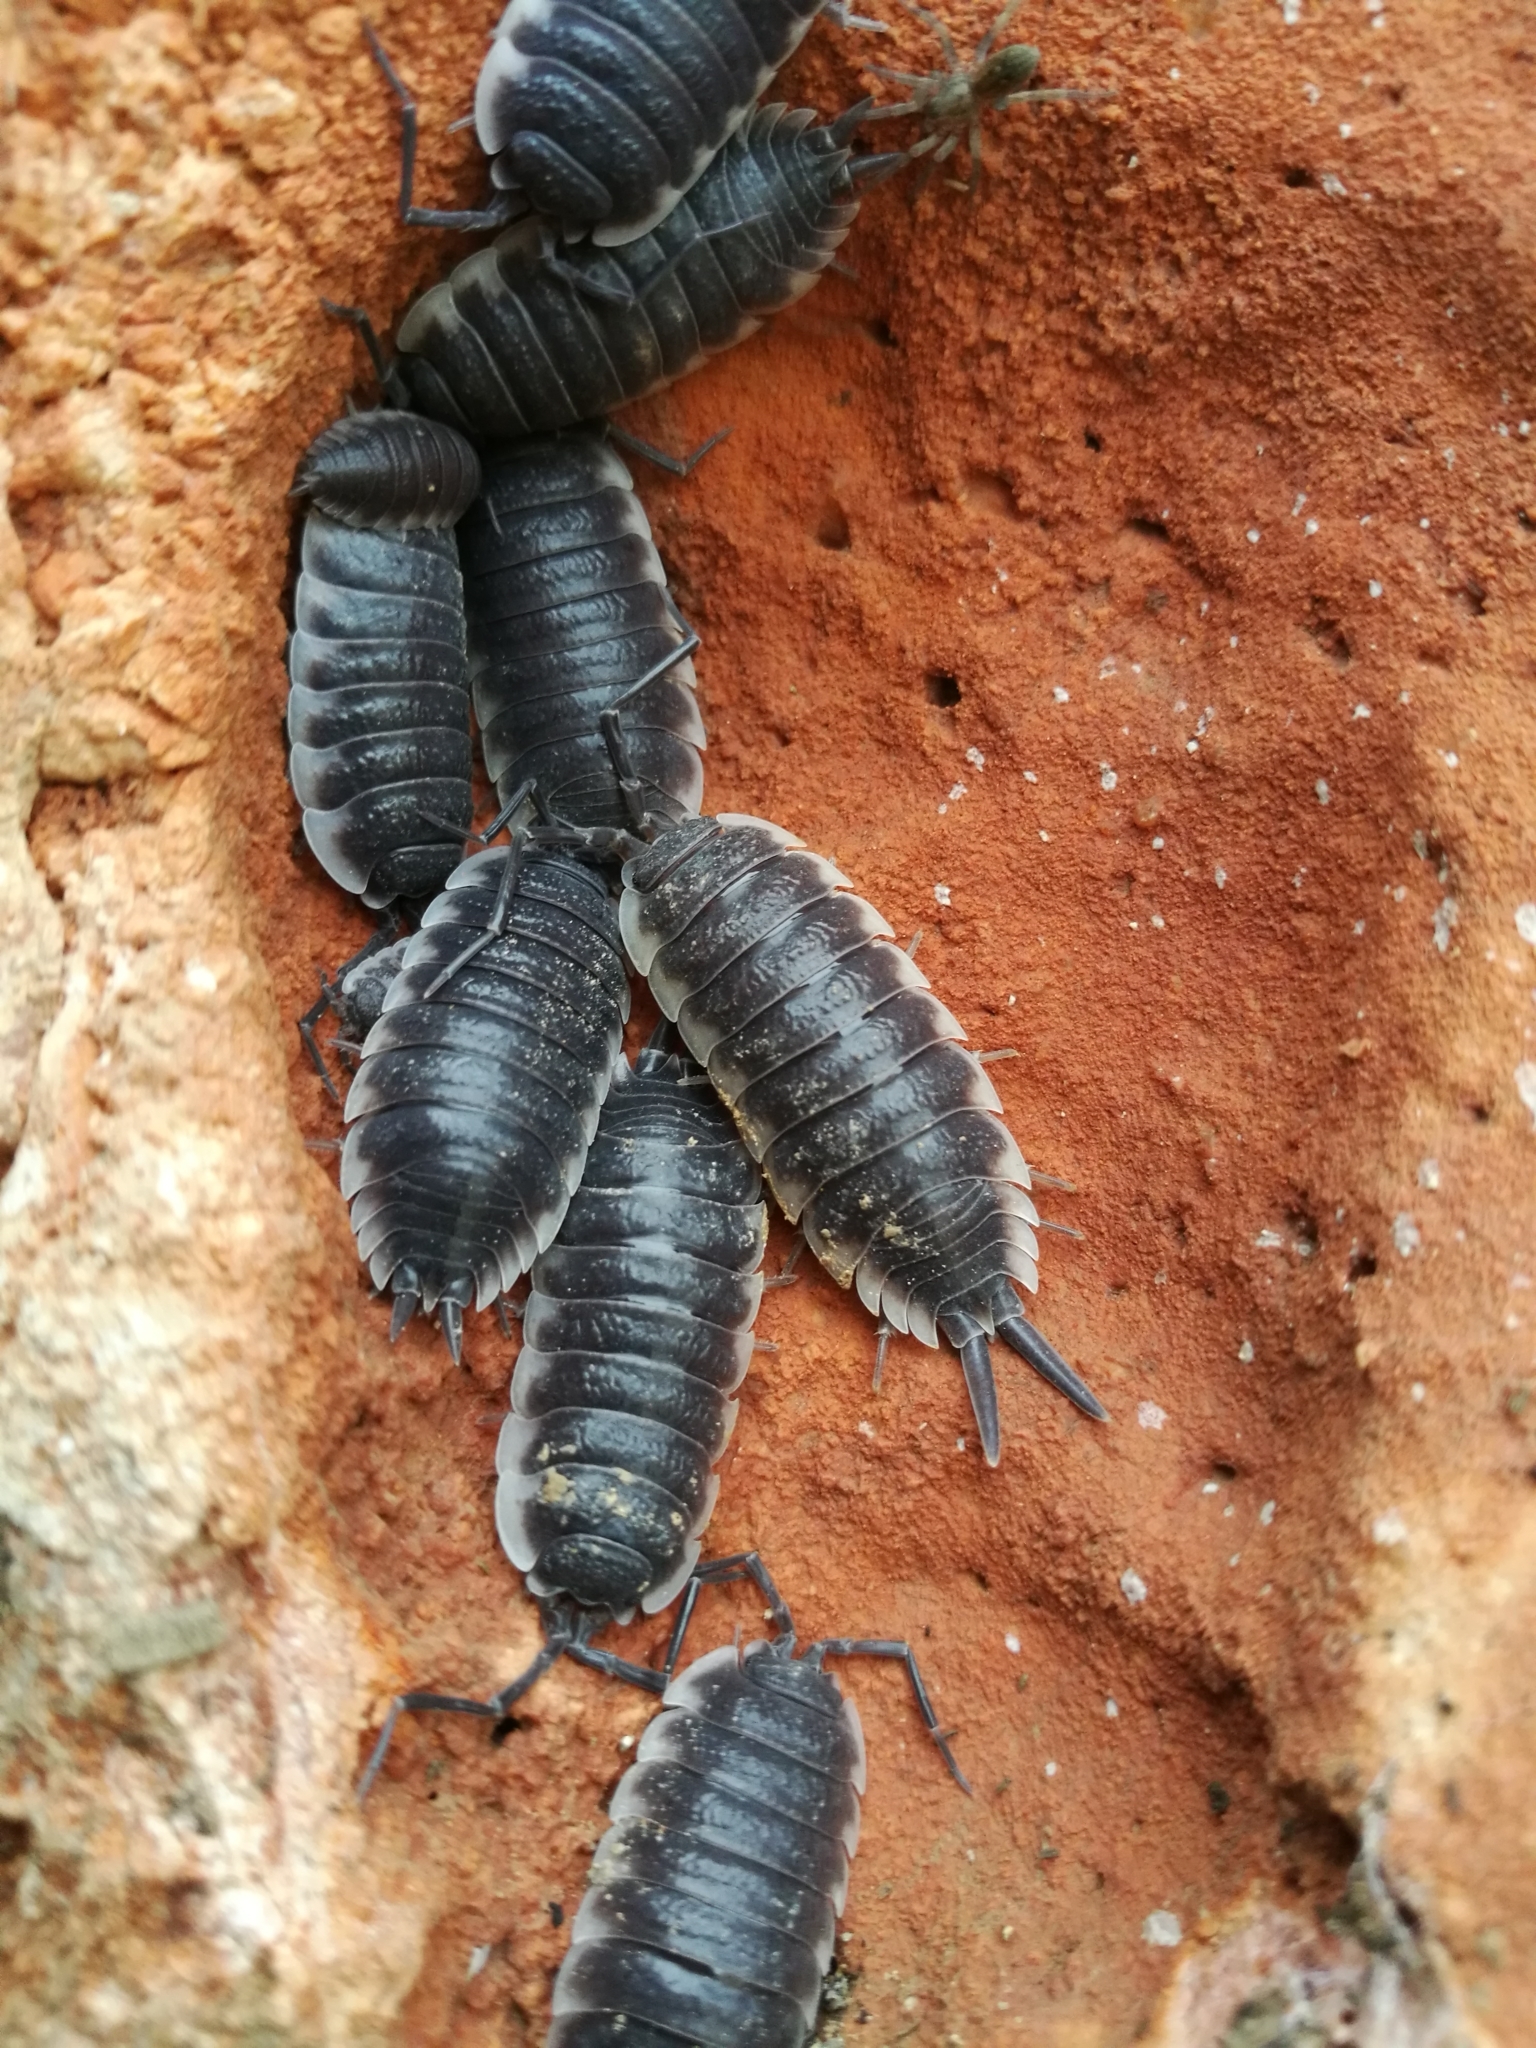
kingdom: Animalia
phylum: Arthropoda
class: Malacostraca
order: Isopoda
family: Porcellionidae
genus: Porcellio
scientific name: Porcellio hoffmannseggii
